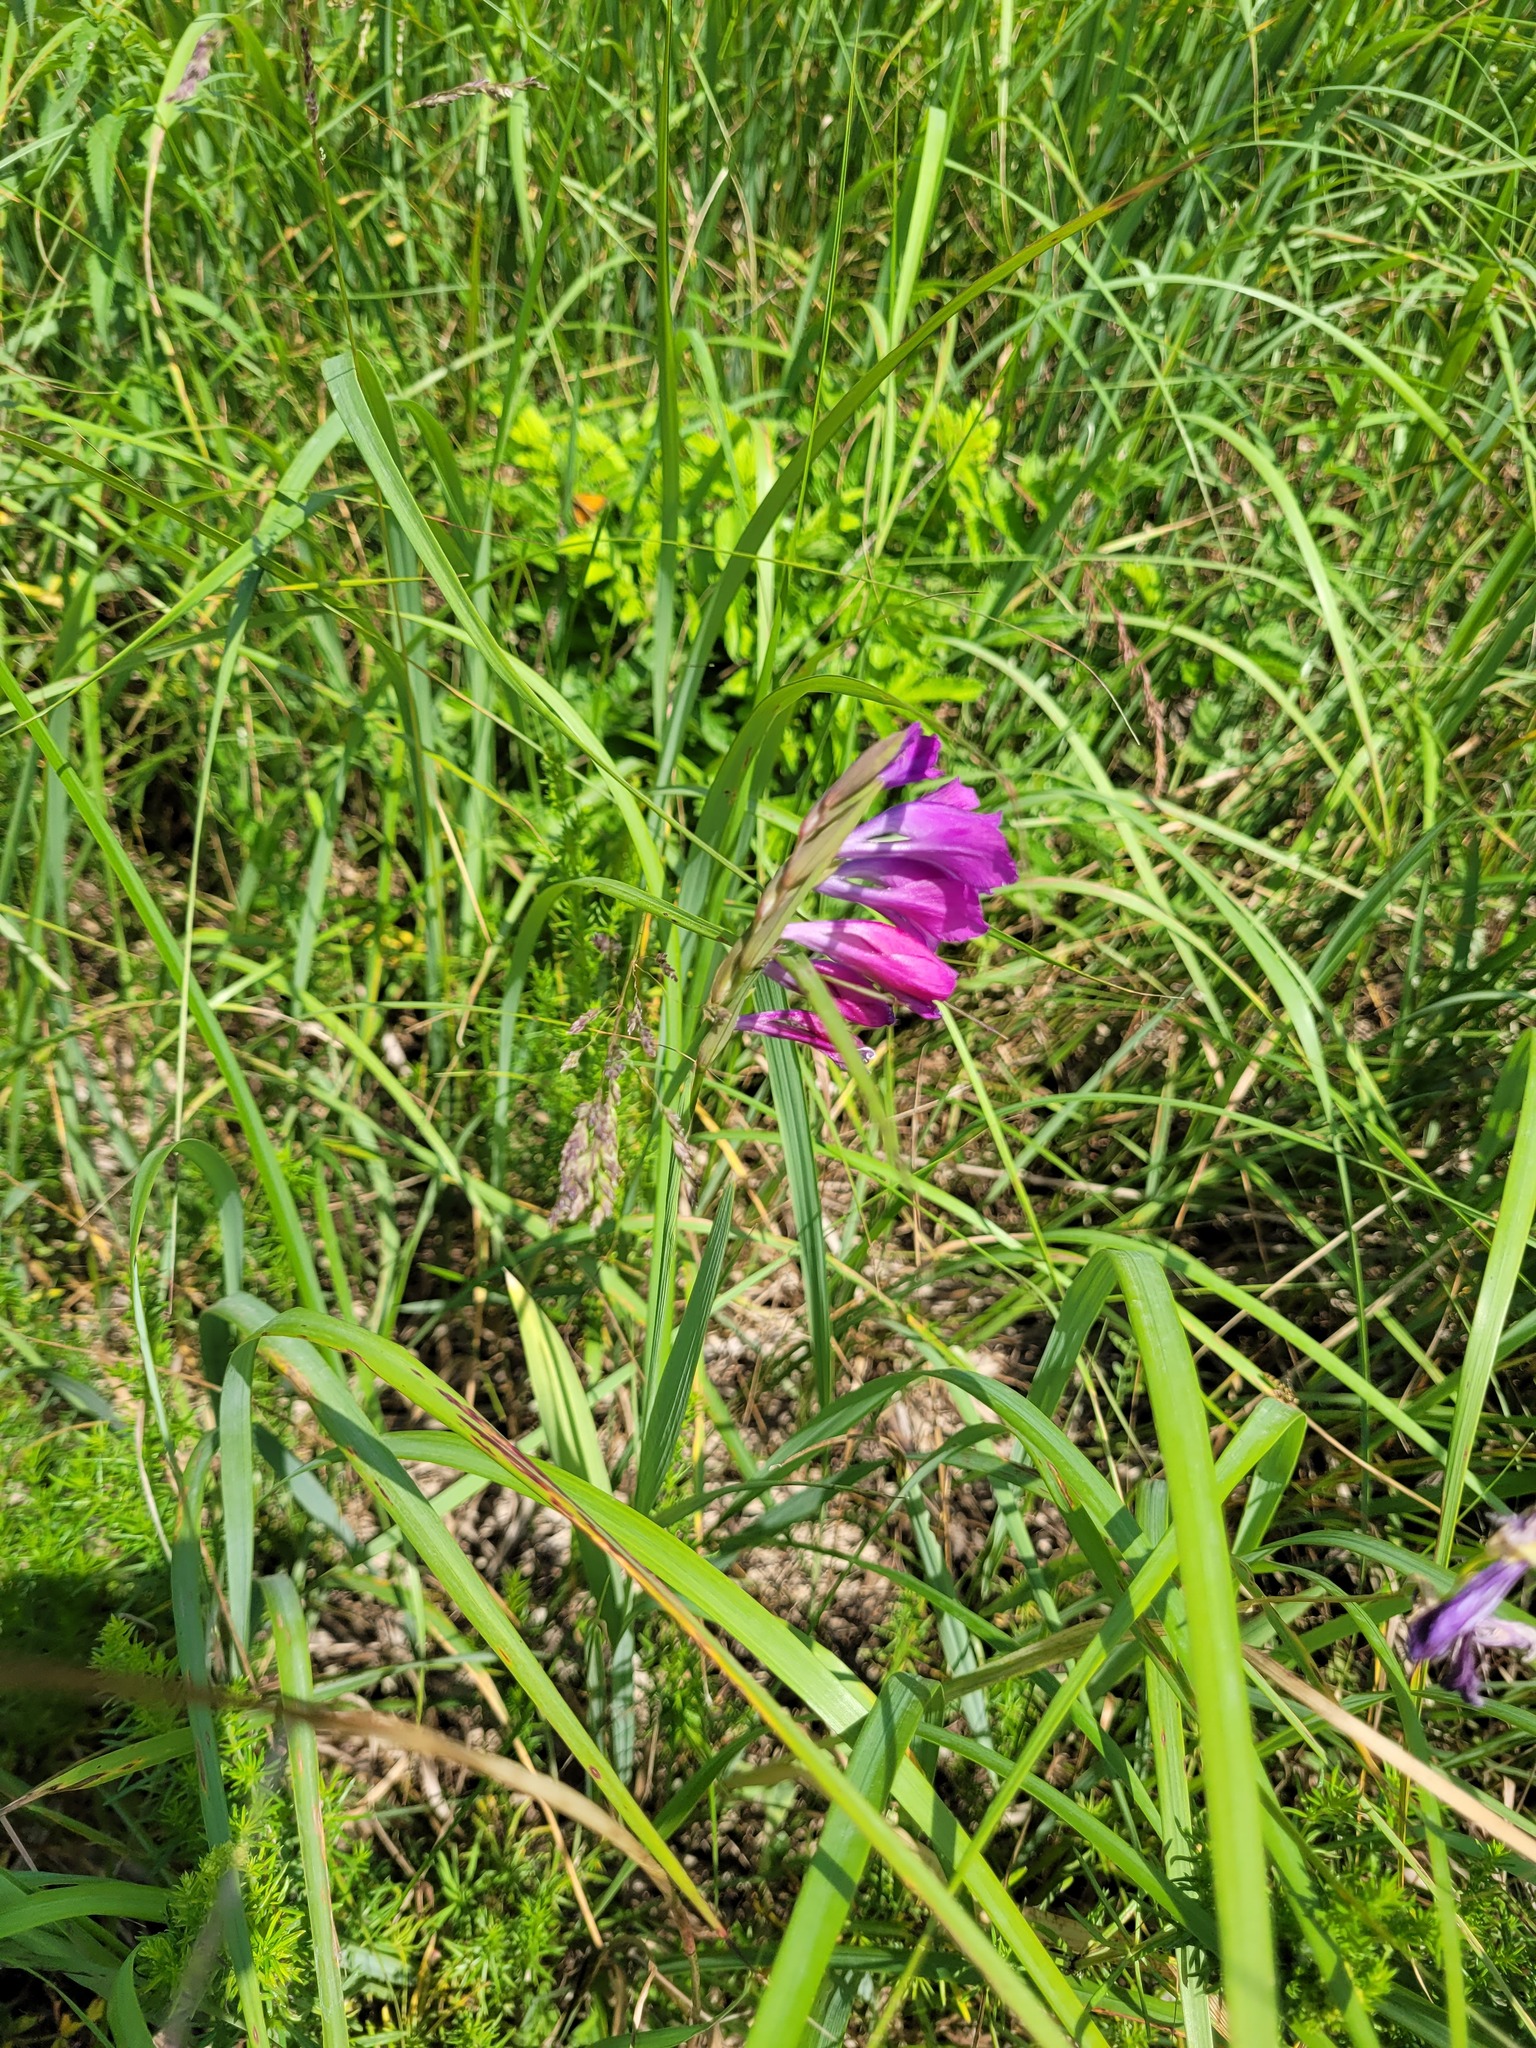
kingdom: Plantae
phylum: Tracheophyta
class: Liliopsida
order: Asparagales
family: Iridaceae
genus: Gladiolus
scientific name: Gladiolus tenuis
